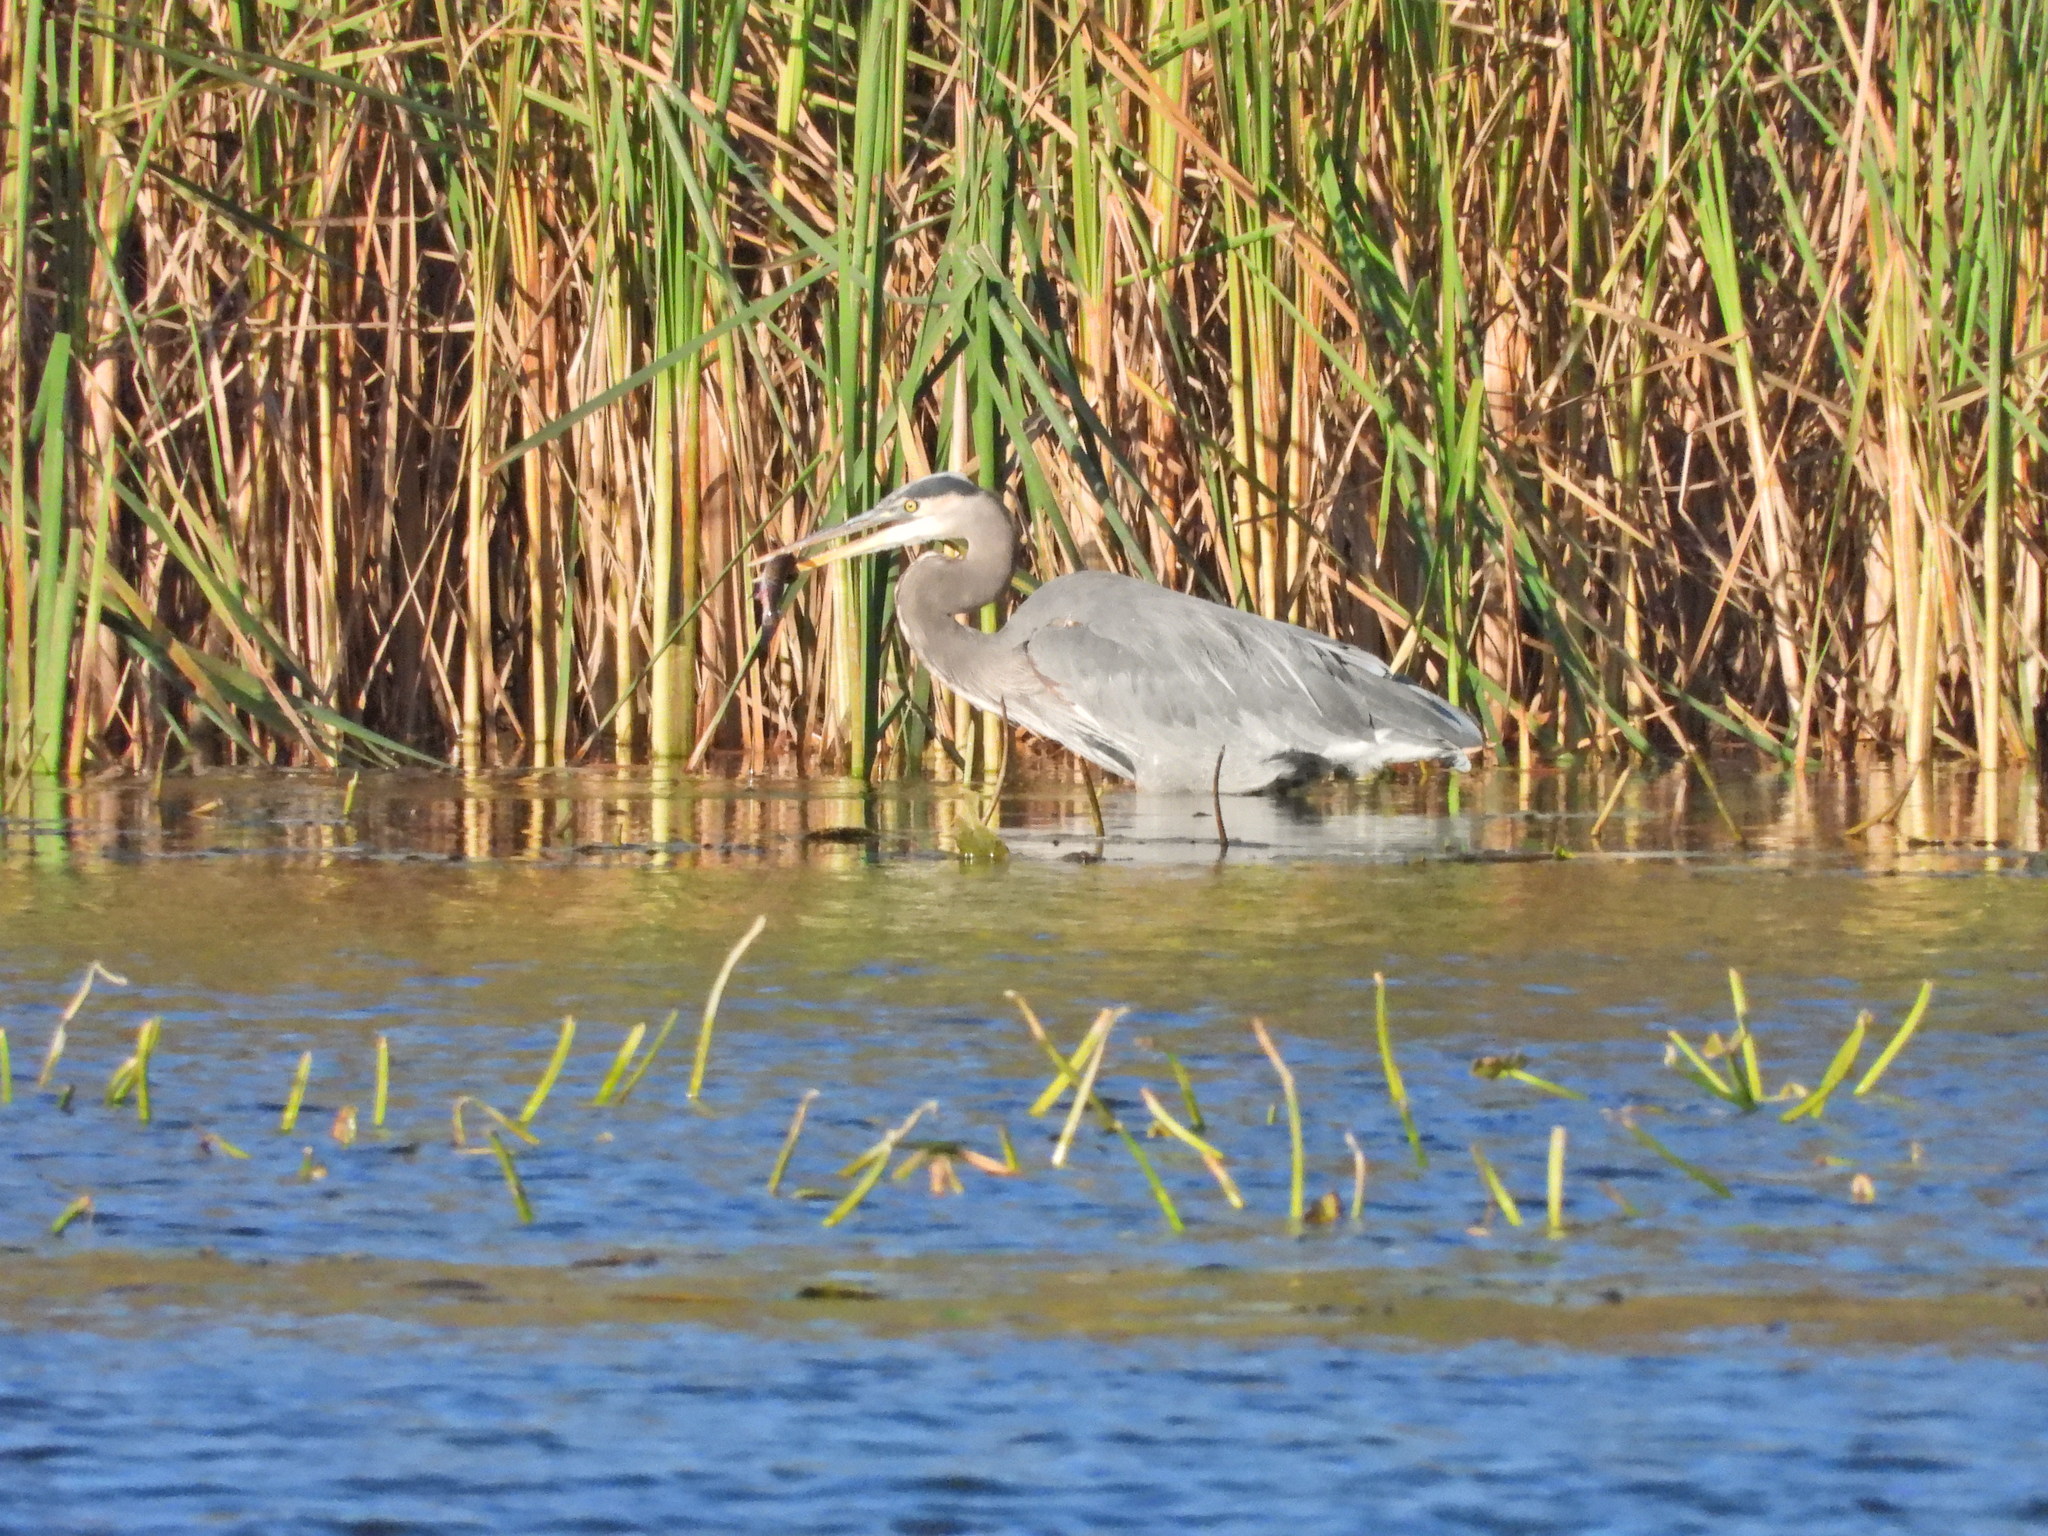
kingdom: Animalia
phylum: Chordata
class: Aves
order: Pelecaniformes
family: Ardeidae
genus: Ardea
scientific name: Ardea herodias
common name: Great blue heron
